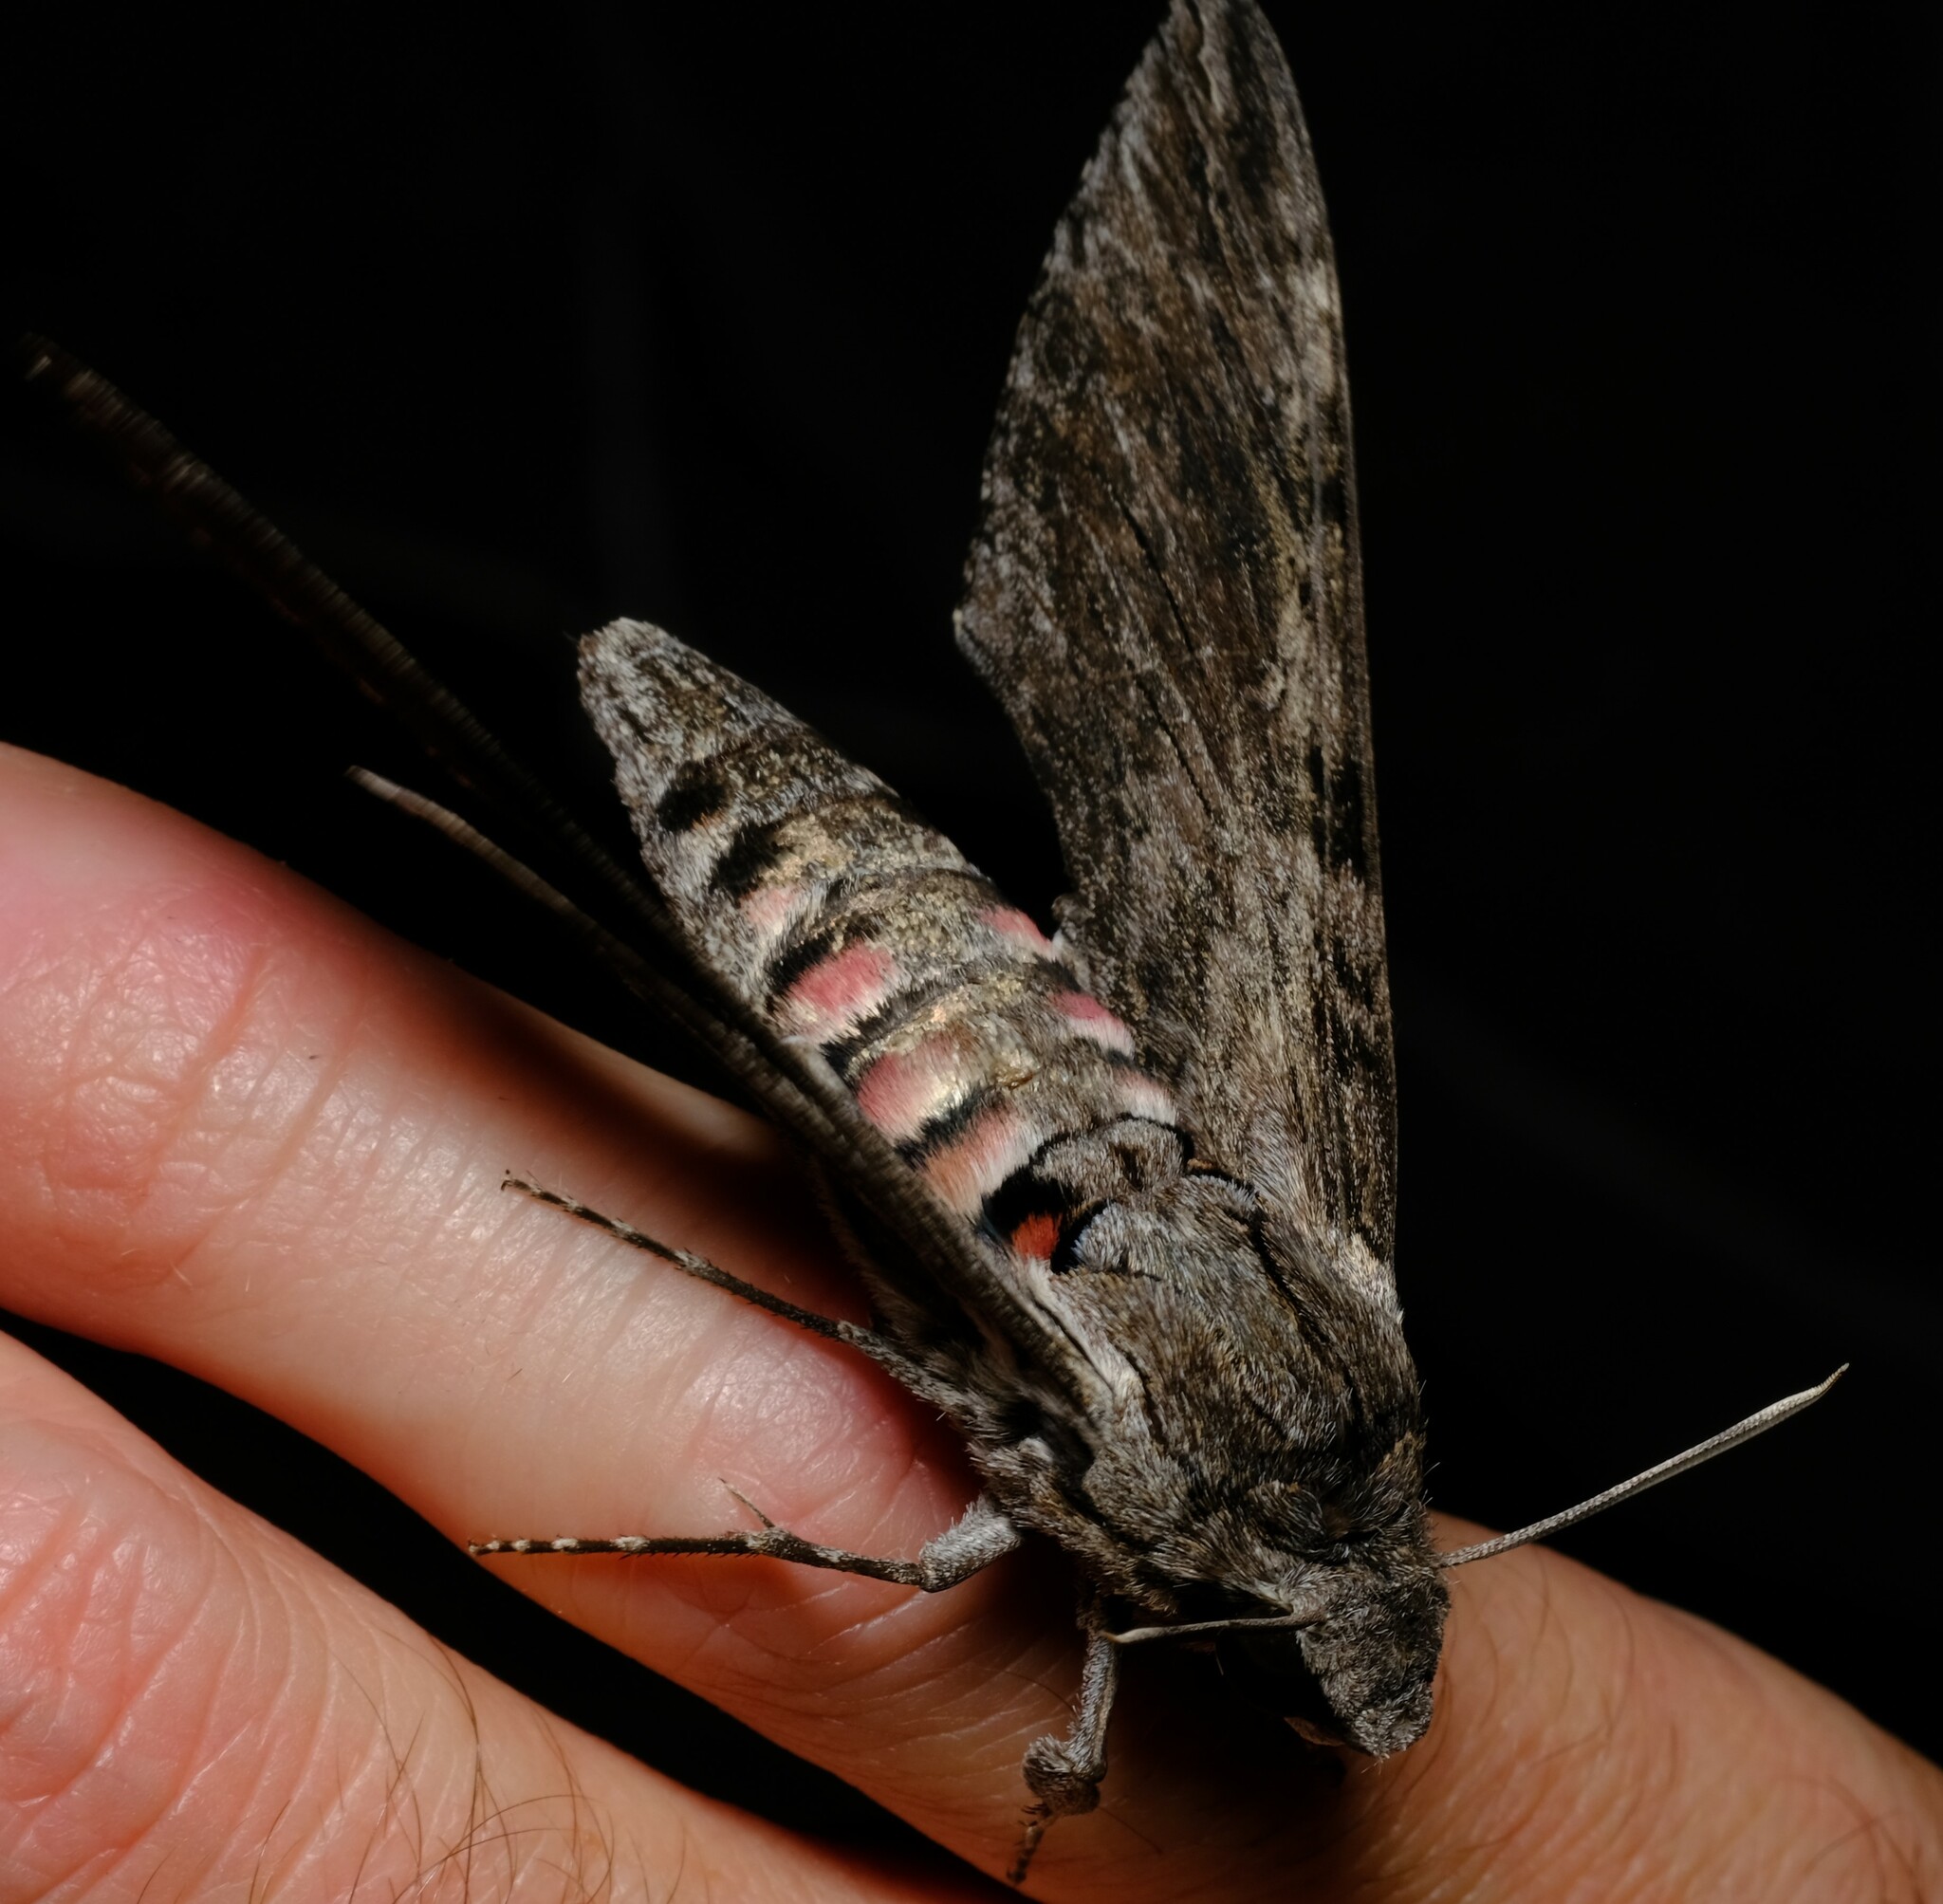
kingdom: Animalia
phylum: Arthropoda
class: Insecta
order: Lepidoptera
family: Sphingidae
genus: Agrius
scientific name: Agrius convolvuli
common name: Convolvulus hawkmoth
